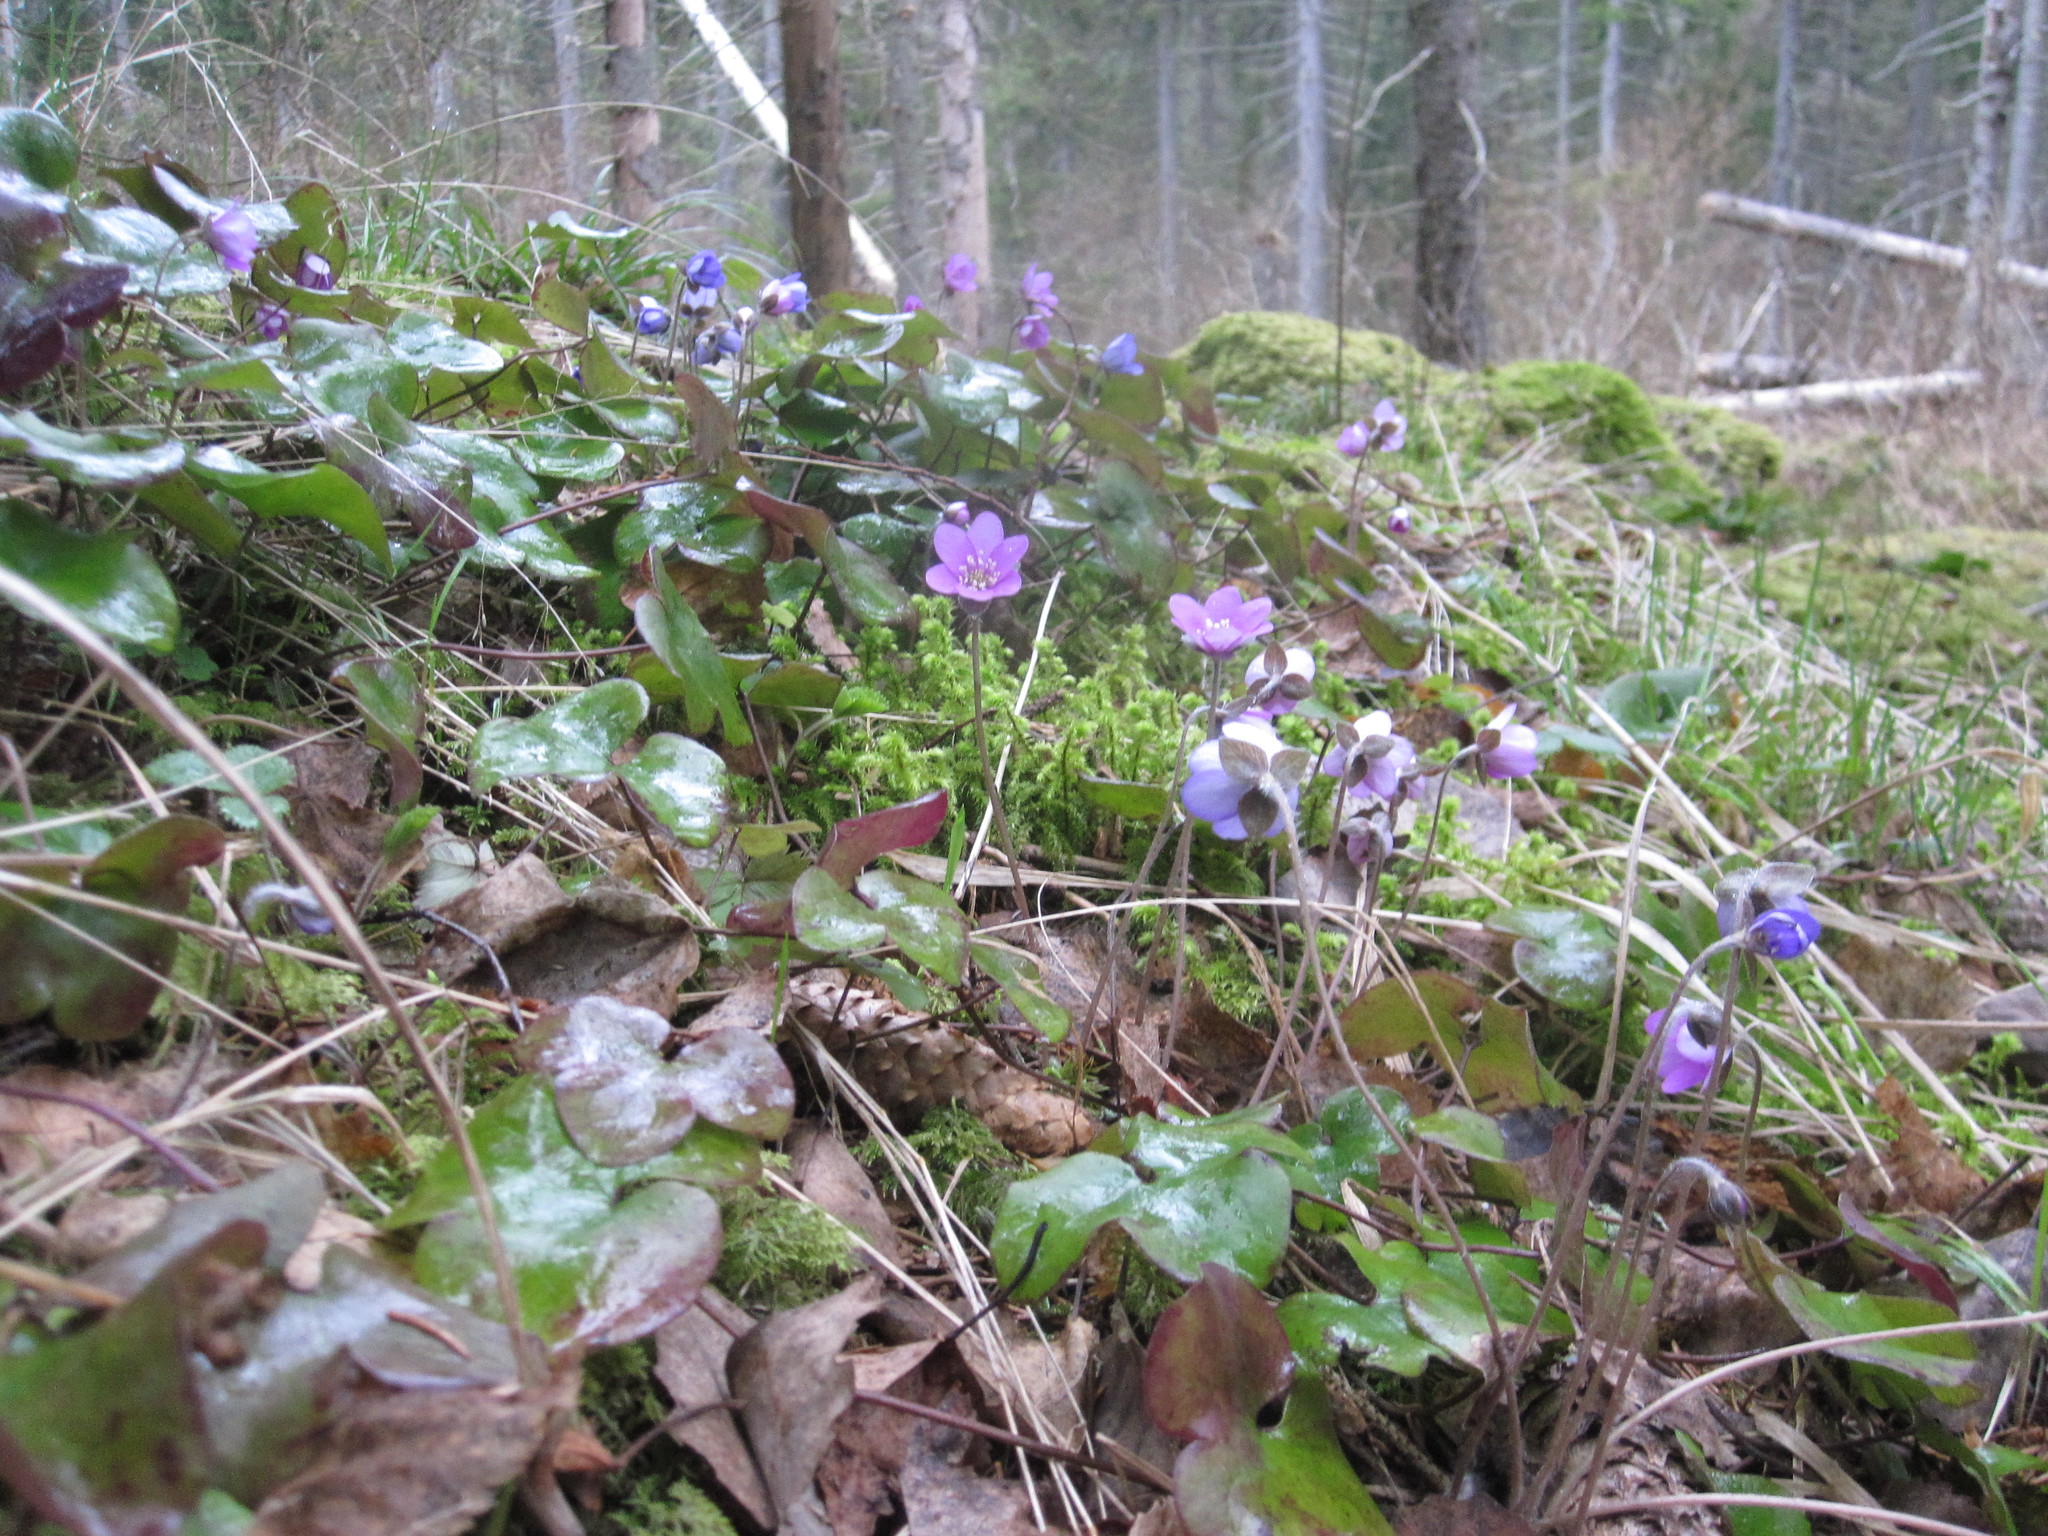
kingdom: Plantae
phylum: Tracheophyta
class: Magnoliopsida
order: Ranunculales
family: Ranunculaceae
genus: Hepatica
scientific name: Hepatica nobilis
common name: Liverleaf
